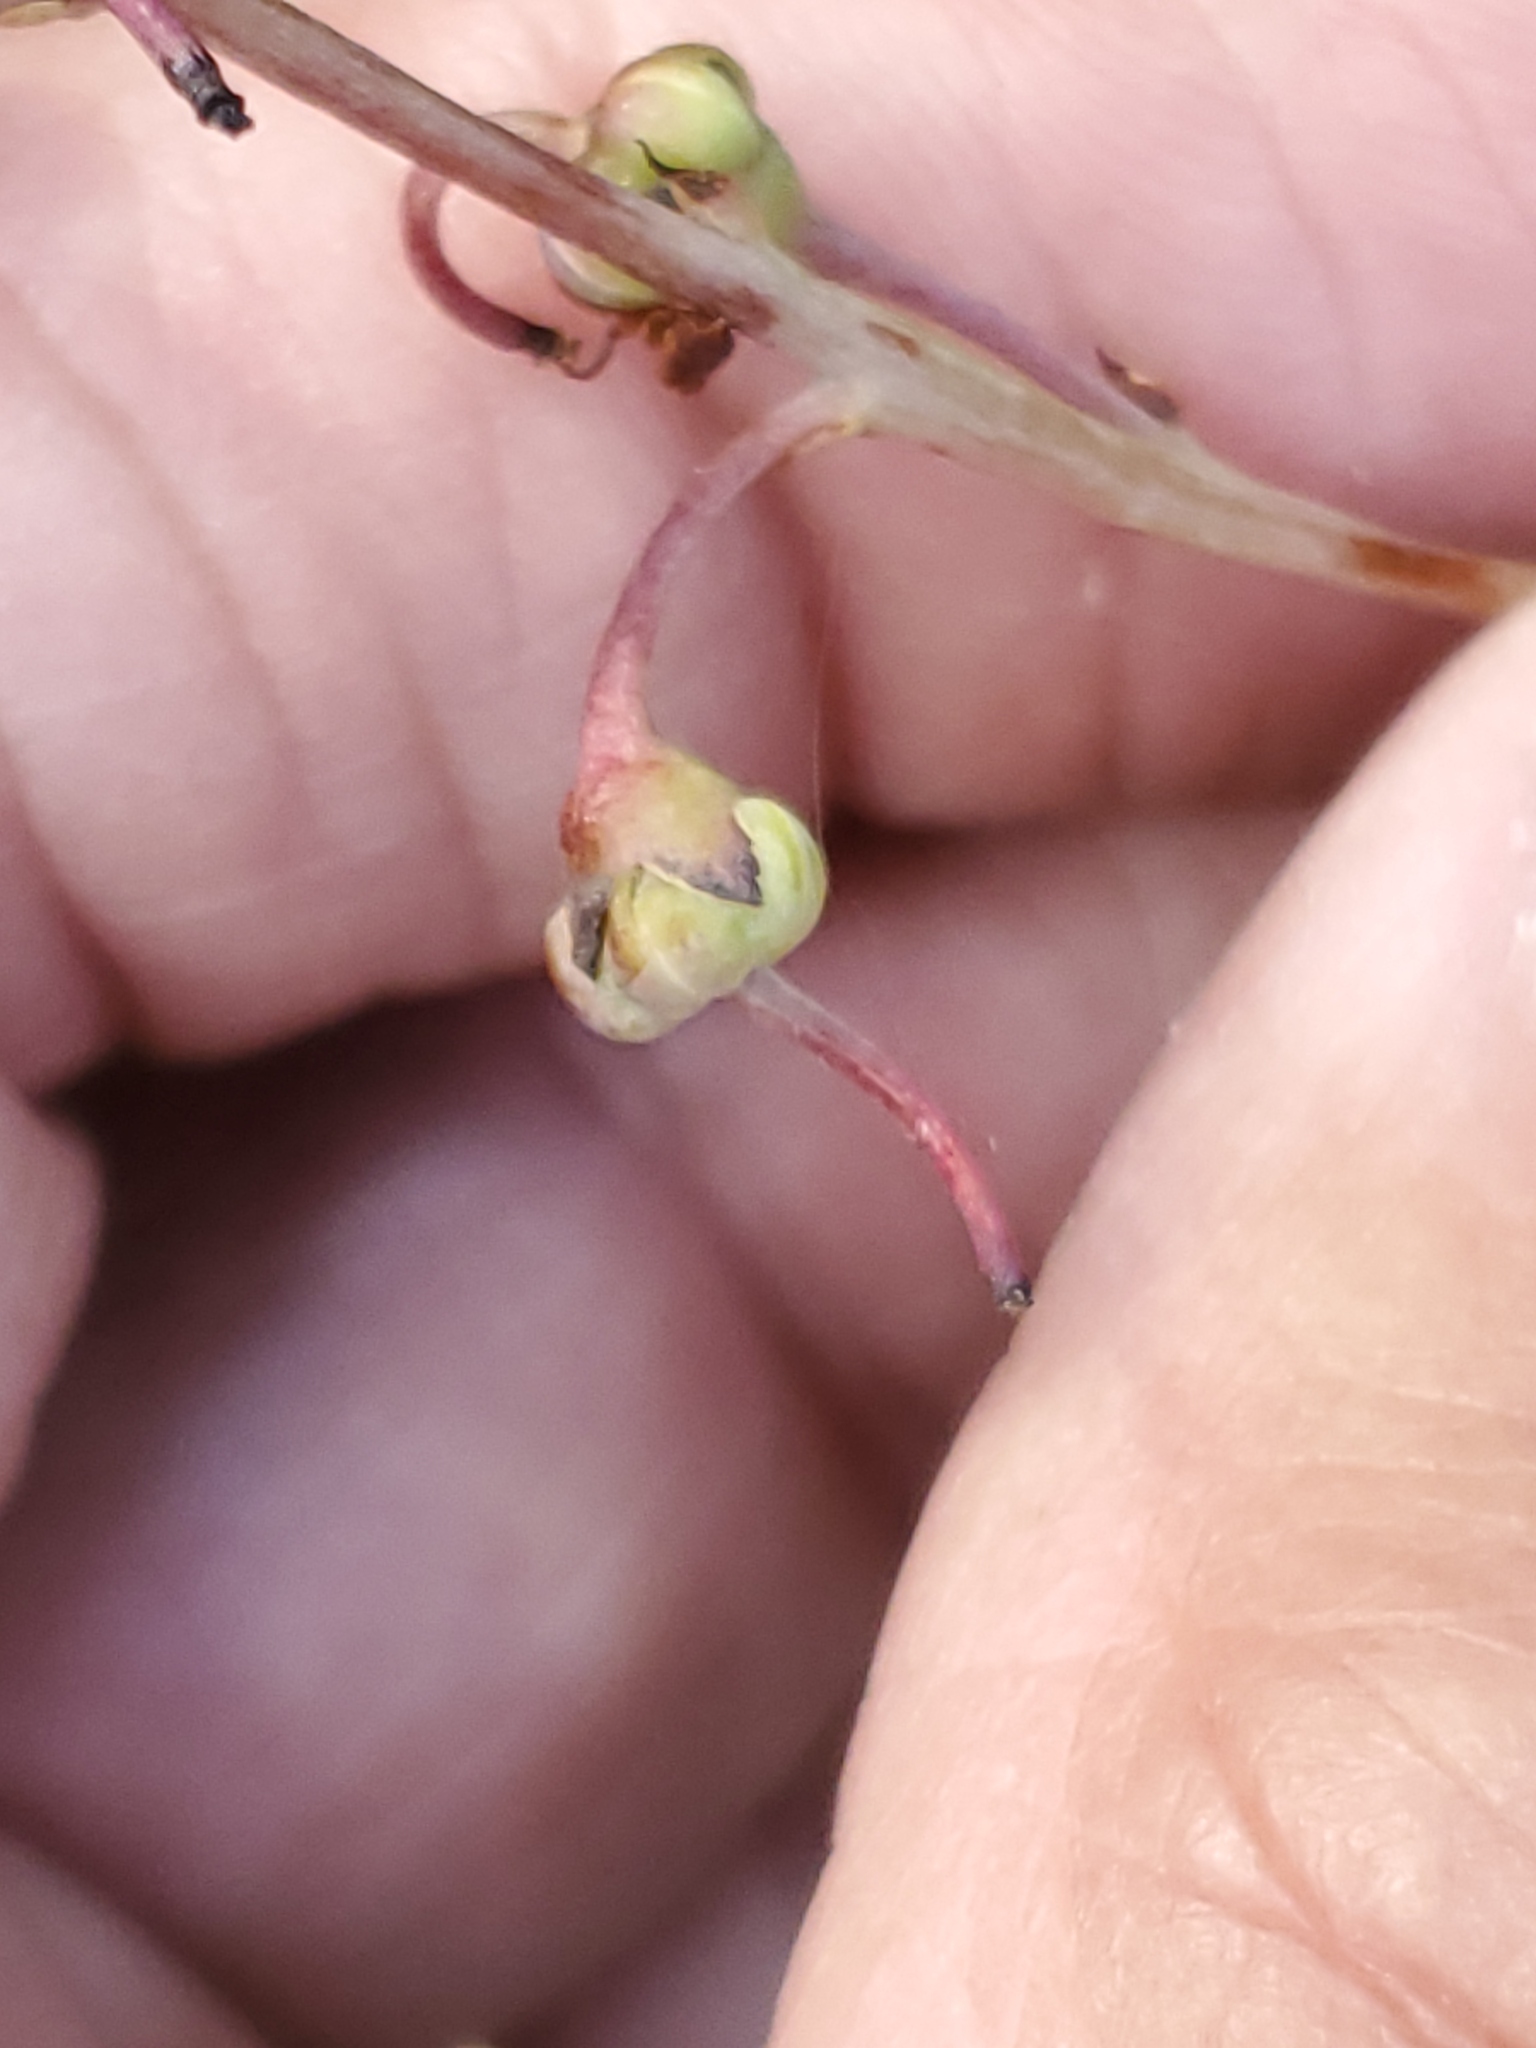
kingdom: Plantae
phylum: Tracheophyta
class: Magnoliopsida
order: Ericales
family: Ericaceae
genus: Pyrola
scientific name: Pyrola asarifolia
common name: Bog wintergreen
